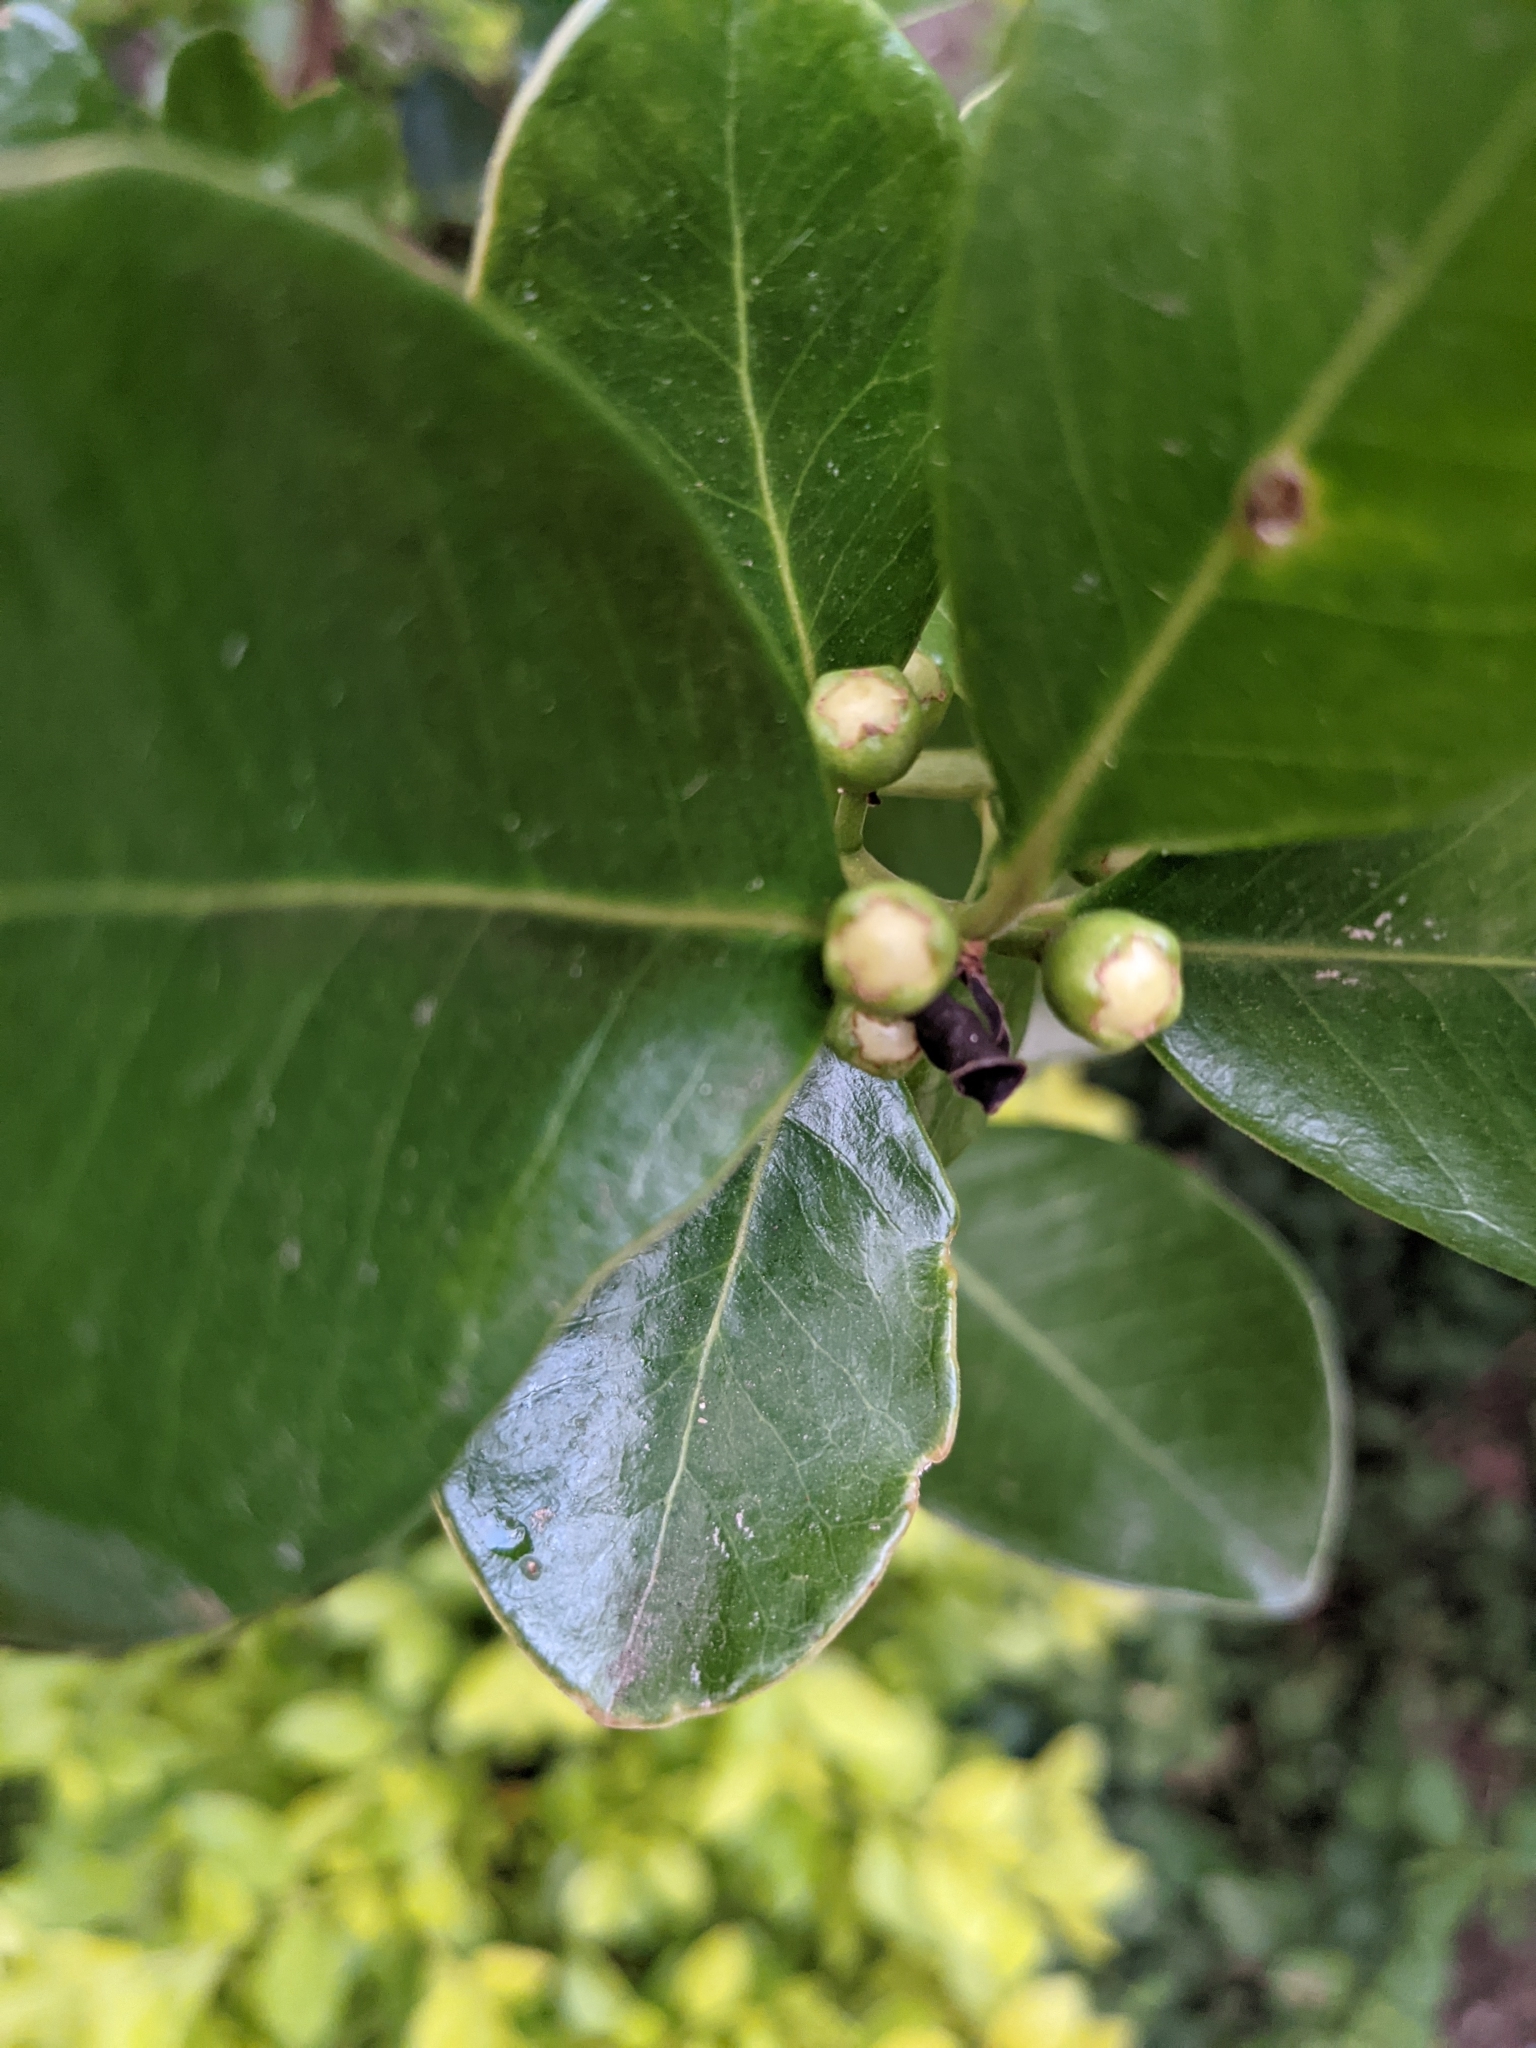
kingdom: Plantae
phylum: Tracheophyta
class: Magnoliopsida
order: Myrtales
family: Myrtaceae
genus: Psidium
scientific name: Psidium cattleianum
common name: Strawberry guava
